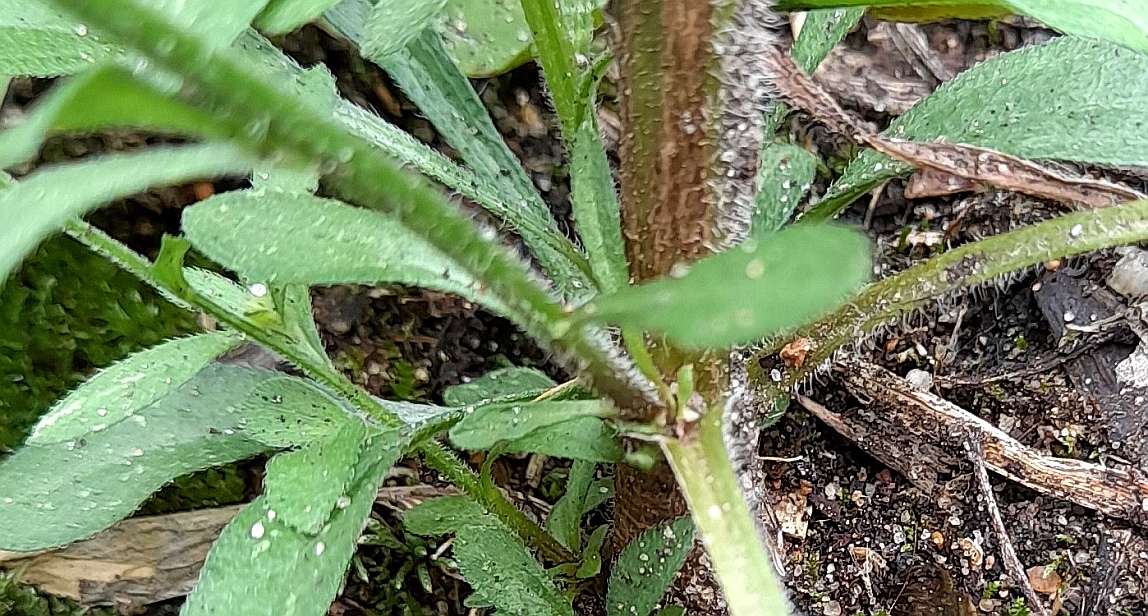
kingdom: Plantae
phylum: Tracheophyta
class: Magnoliopsida
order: Asterales
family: Asteraceae
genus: Erigeron
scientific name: Erigeron annuus
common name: Tall fleabane
